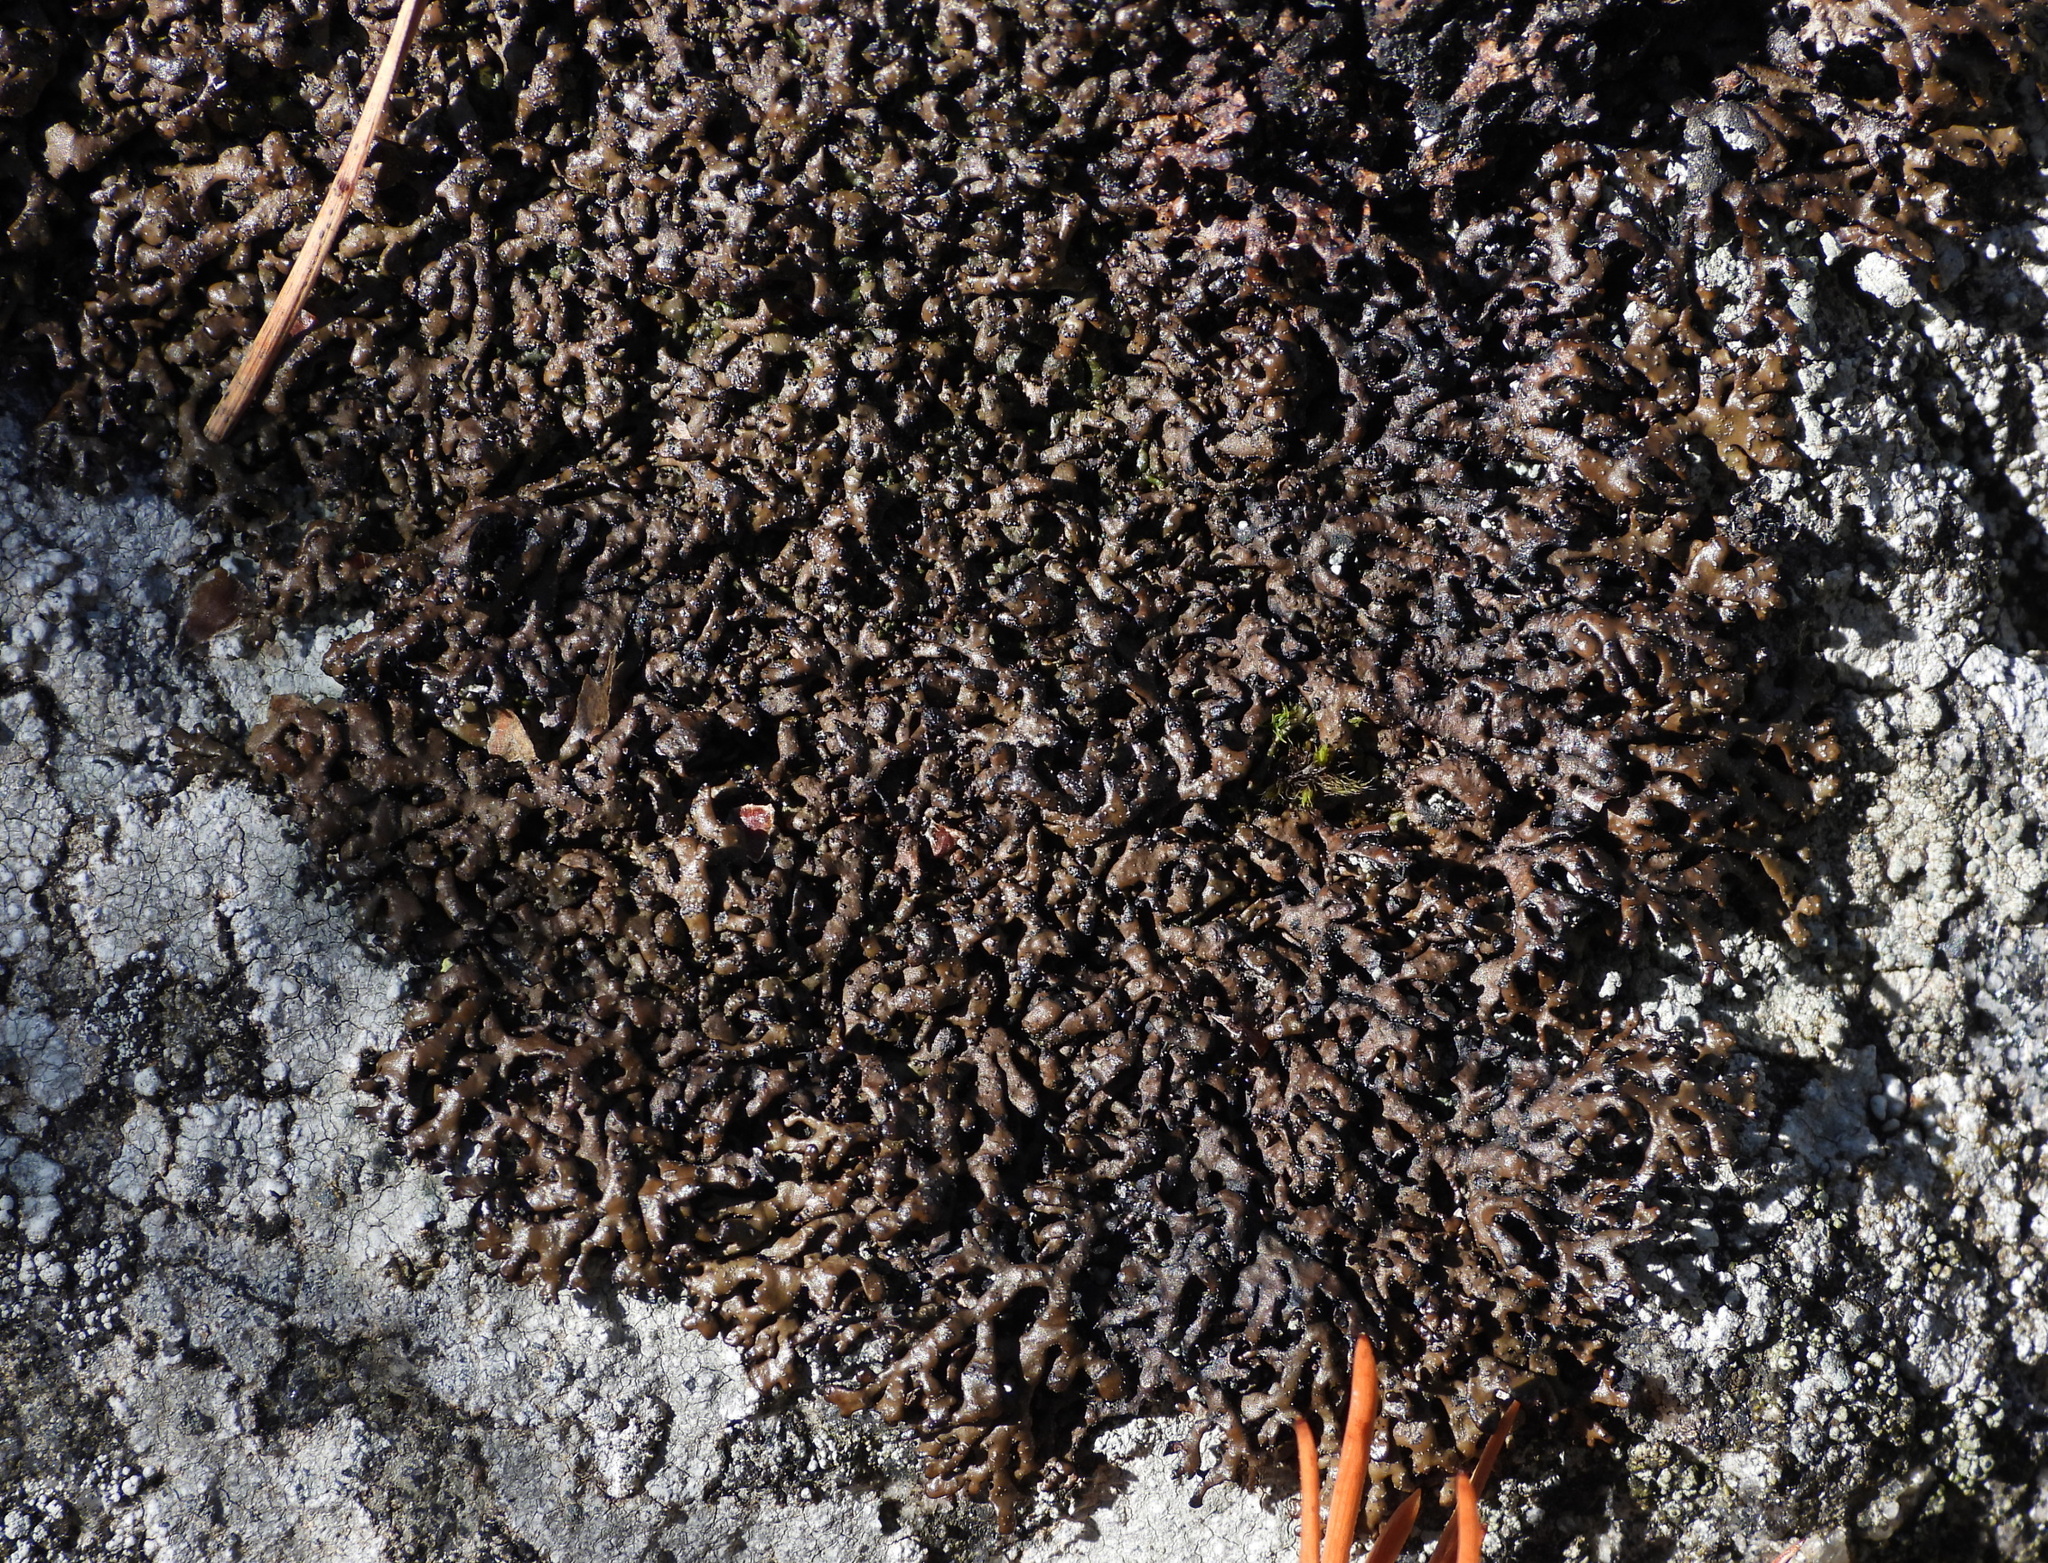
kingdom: Fungi
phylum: Ascomycota
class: Lecanoromycetes
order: Lecanorales
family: Parmeliaceae
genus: Melanelia
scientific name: Melanelia stygia
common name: Alpine camouflage lichen
